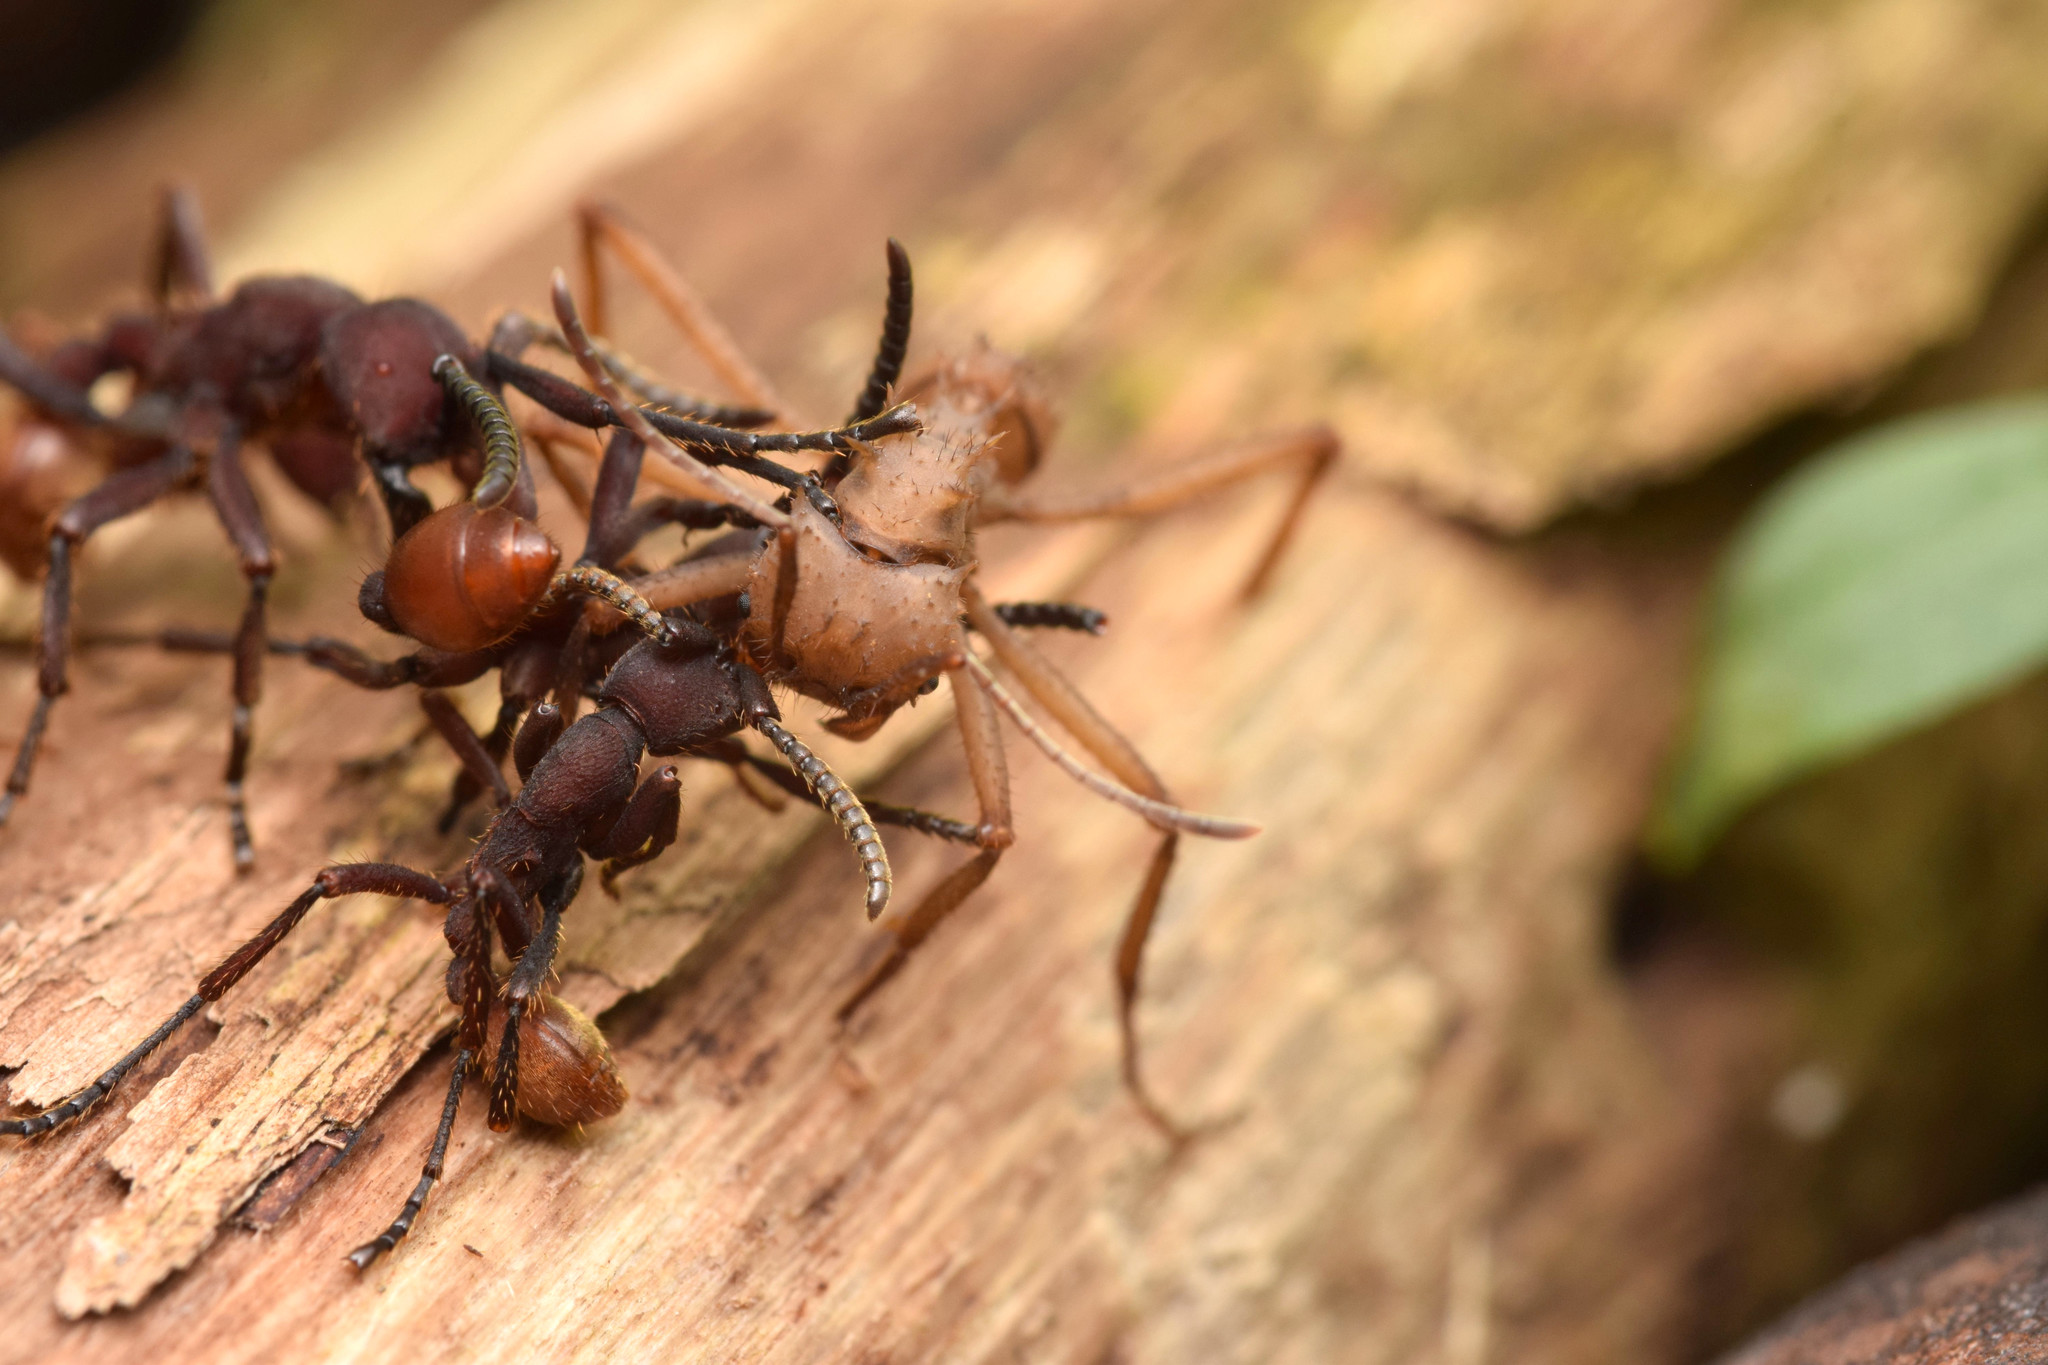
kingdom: Animalia
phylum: Arthropoda
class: Insecta
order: Hymenoptera
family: Formicidae
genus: Nomamyrmex
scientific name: Nomamyrmex esenbeckii
